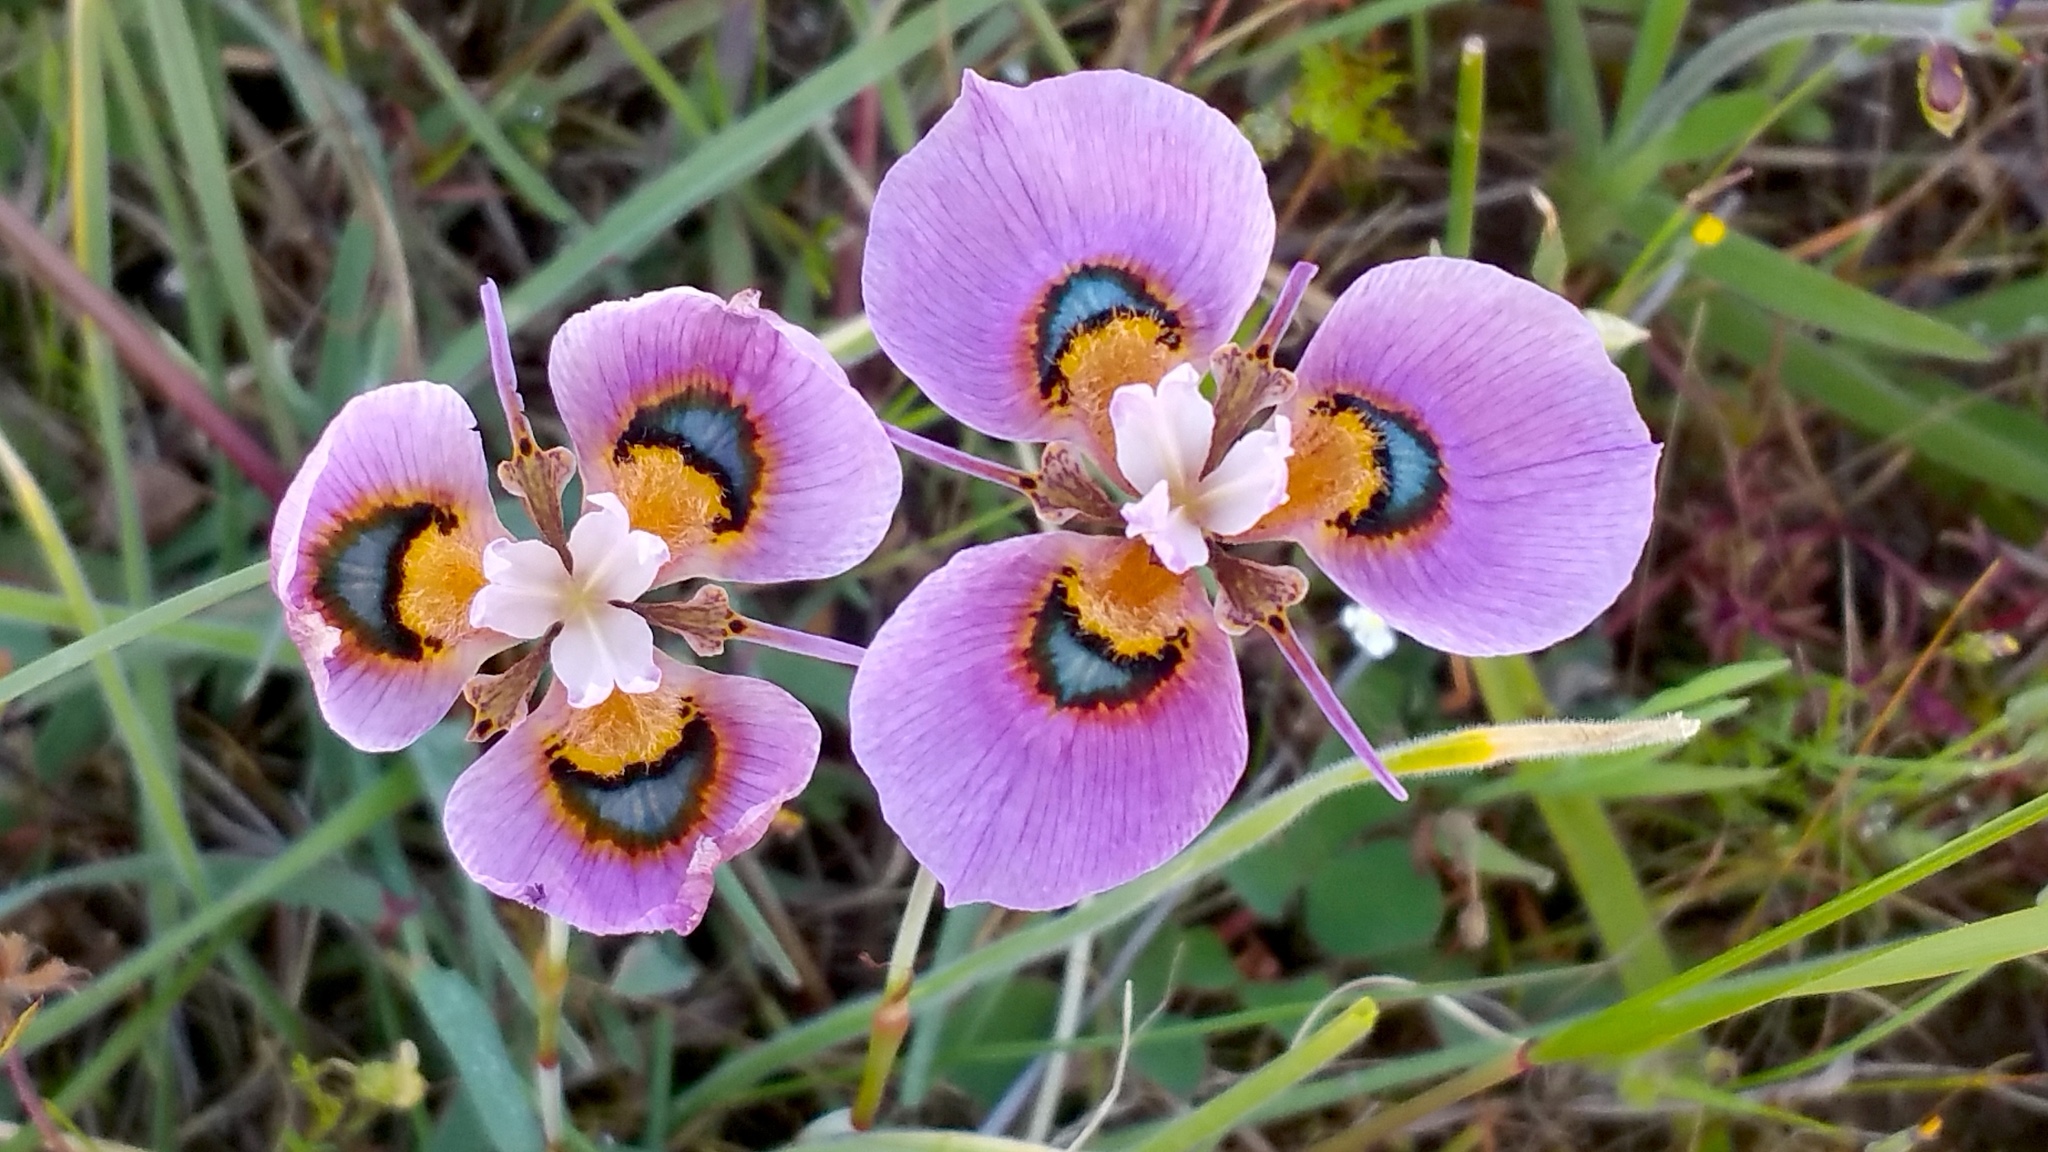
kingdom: Plantae
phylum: Tracheophyta
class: Liliopsida
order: Asparagales
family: Iridaceae
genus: Moraea
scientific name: Moraea villosa
